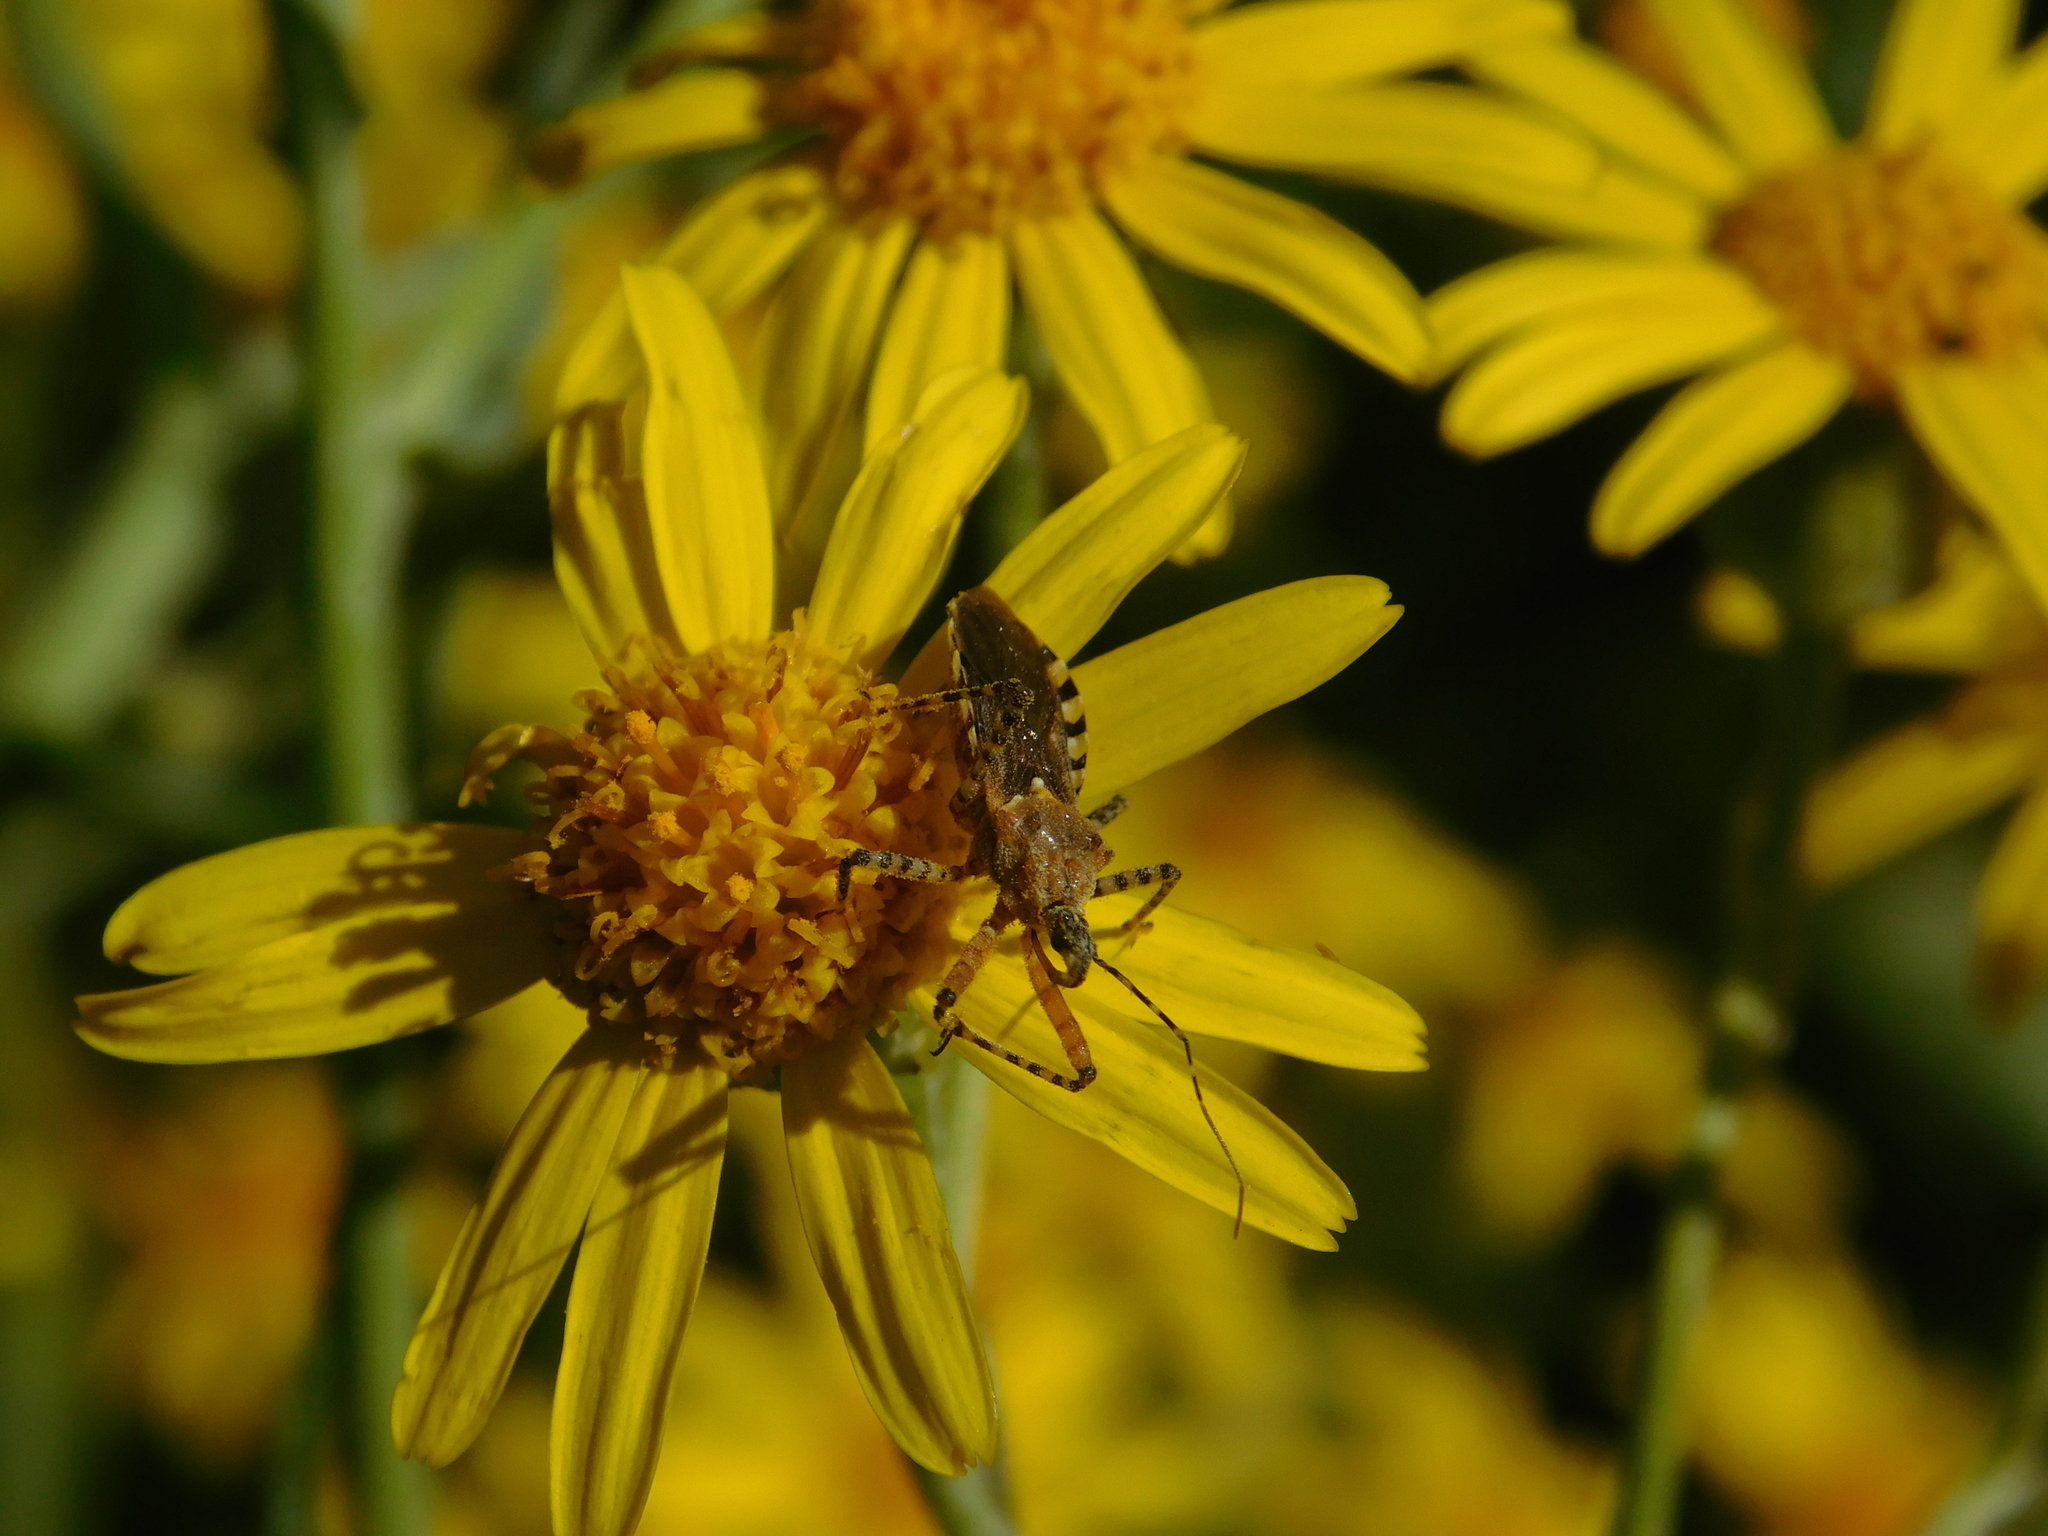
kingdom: Animalia
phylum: Arthropoda
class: Insecta
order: Hemiptera
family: Reduviidae
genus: Cosmoclopius
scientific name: Cosmoclopius nigroannulatus
